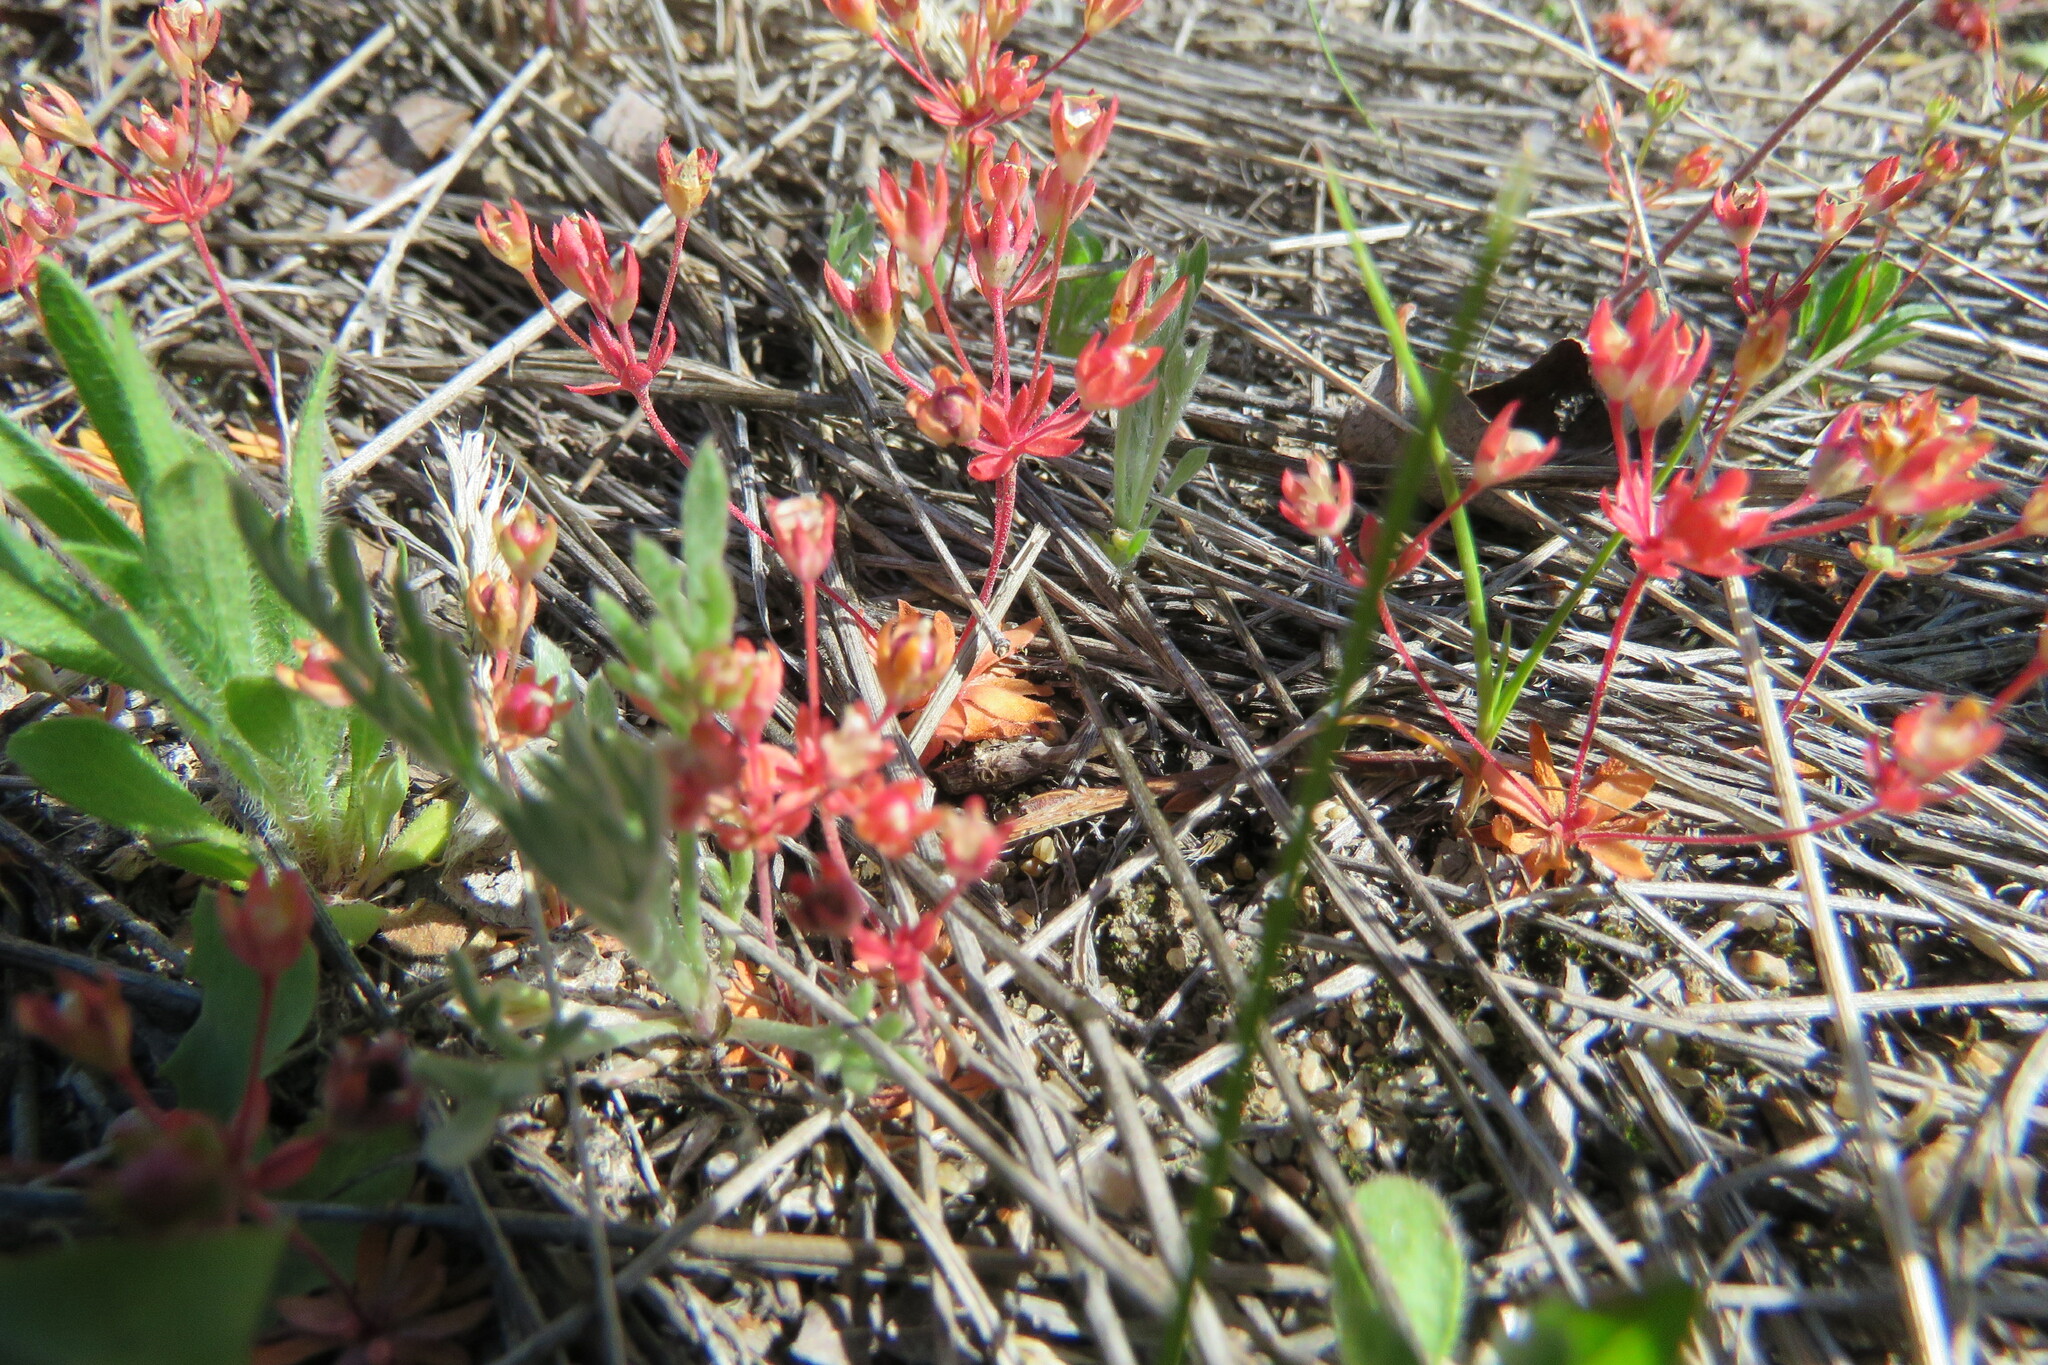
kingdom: Plantae
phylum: Tracheophyta
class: Magnoliopsida
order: Ericales
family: Primulaceae
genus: Androsace
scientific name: Androsace septentrionalis
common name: Hairy northern fairy-candelabra
